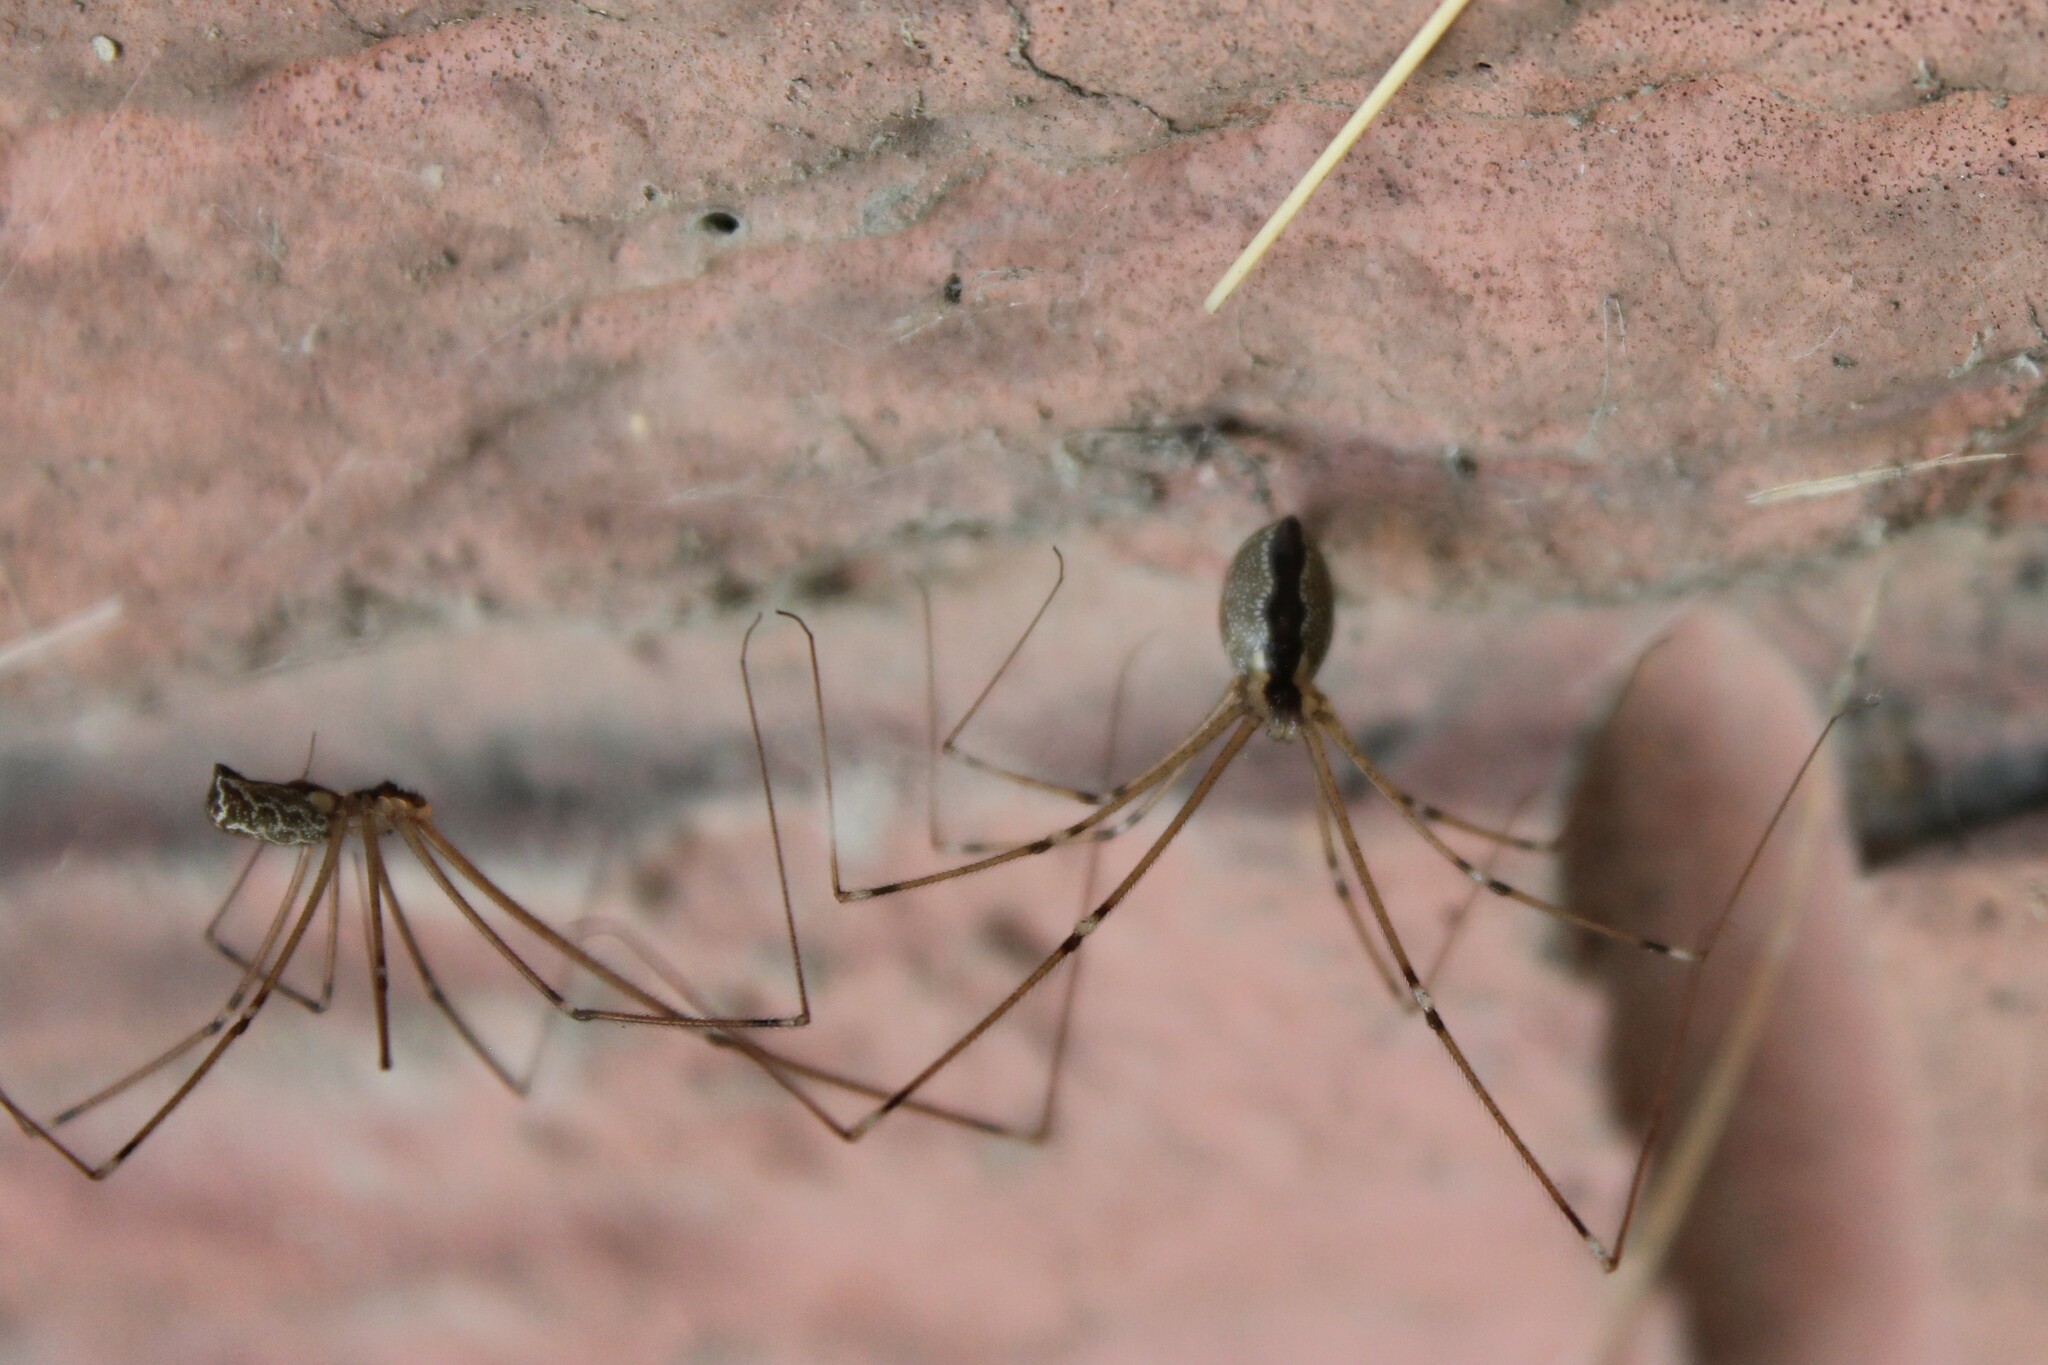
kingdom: Animalia
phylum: Arthropoda
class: Arachnida
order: Araneae
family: Pholcidae
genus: Holocnemus
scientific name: Holocnemus pluchei
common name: Marbled cellar spider
